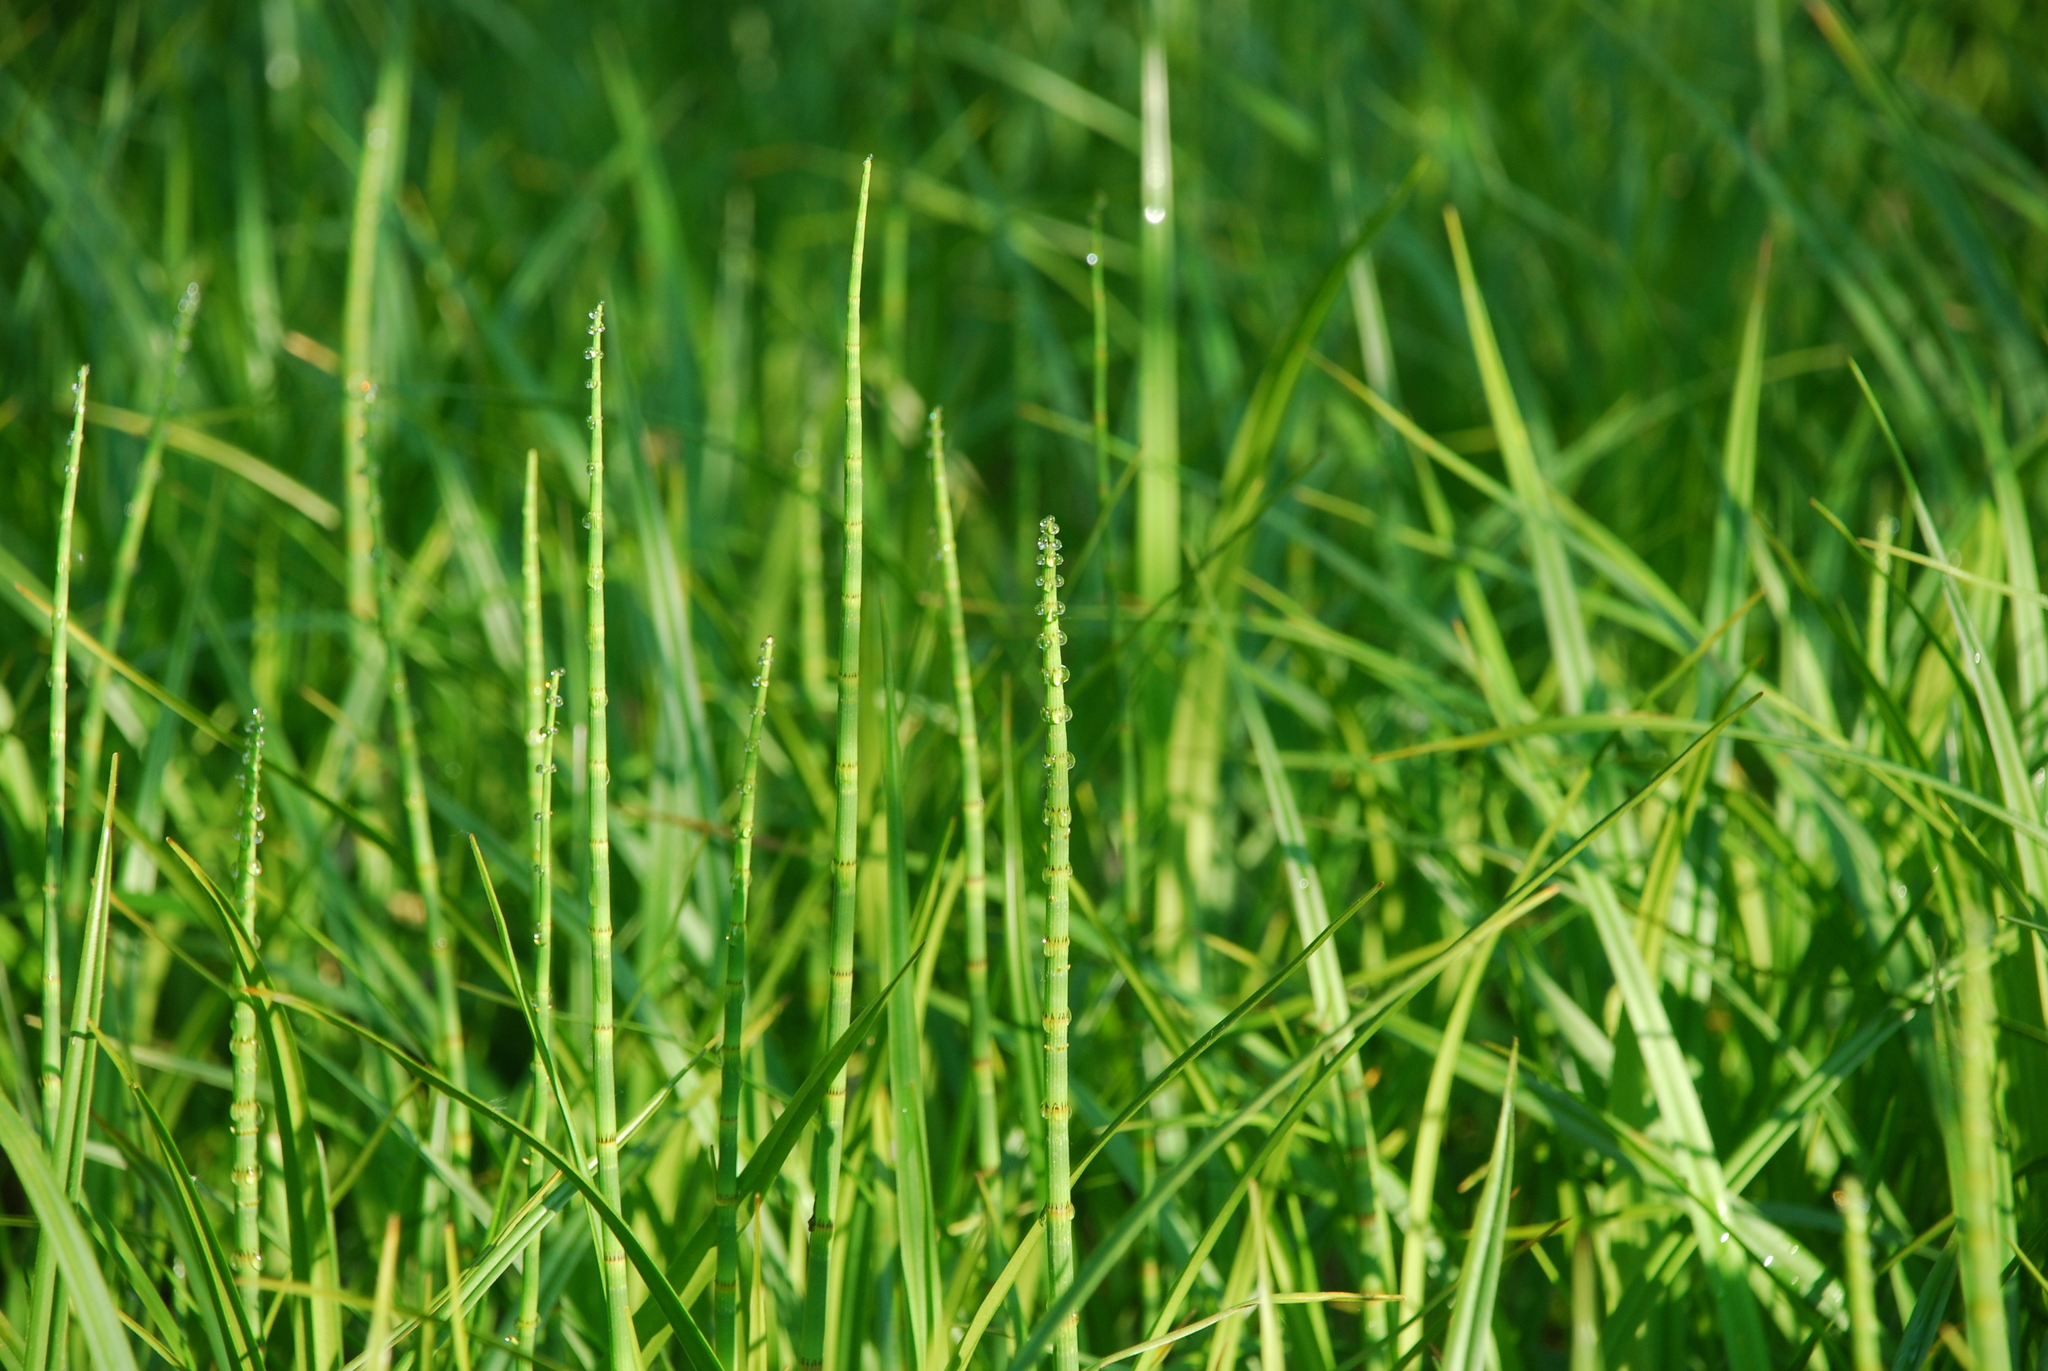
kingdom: Plantae
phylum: Tracheophyta
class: Polypodiopsida
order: Equisetales
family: Equisetaceae
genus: Equisetum
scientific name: Equisetum fluviatile
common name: Water horsetail
